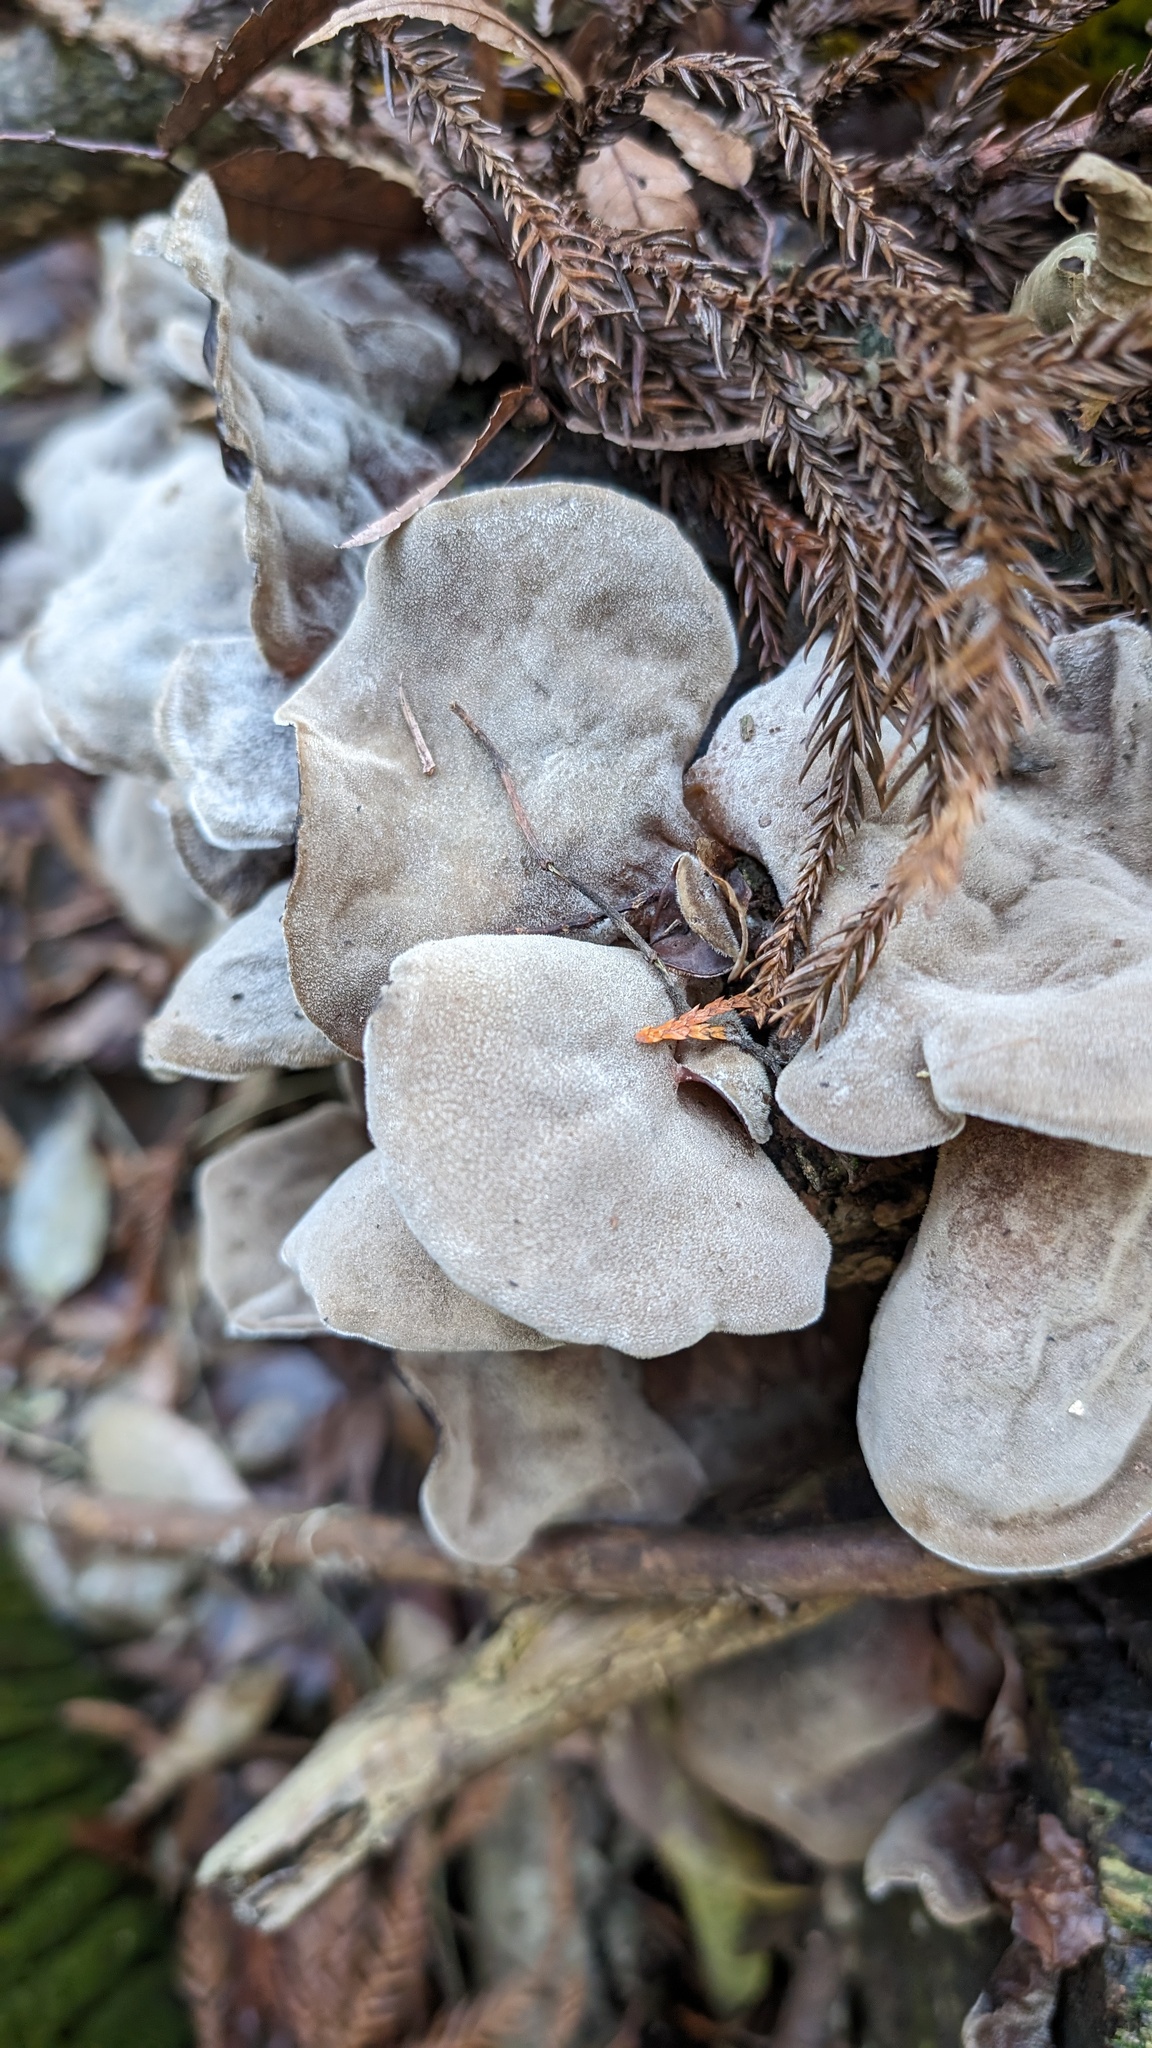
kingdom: Fungi
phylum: Basidiomycota
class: Agaricomycetes
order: Auriculariales
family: Auriculariaceae
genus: Auricularia
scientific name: Auricularia nigricans
